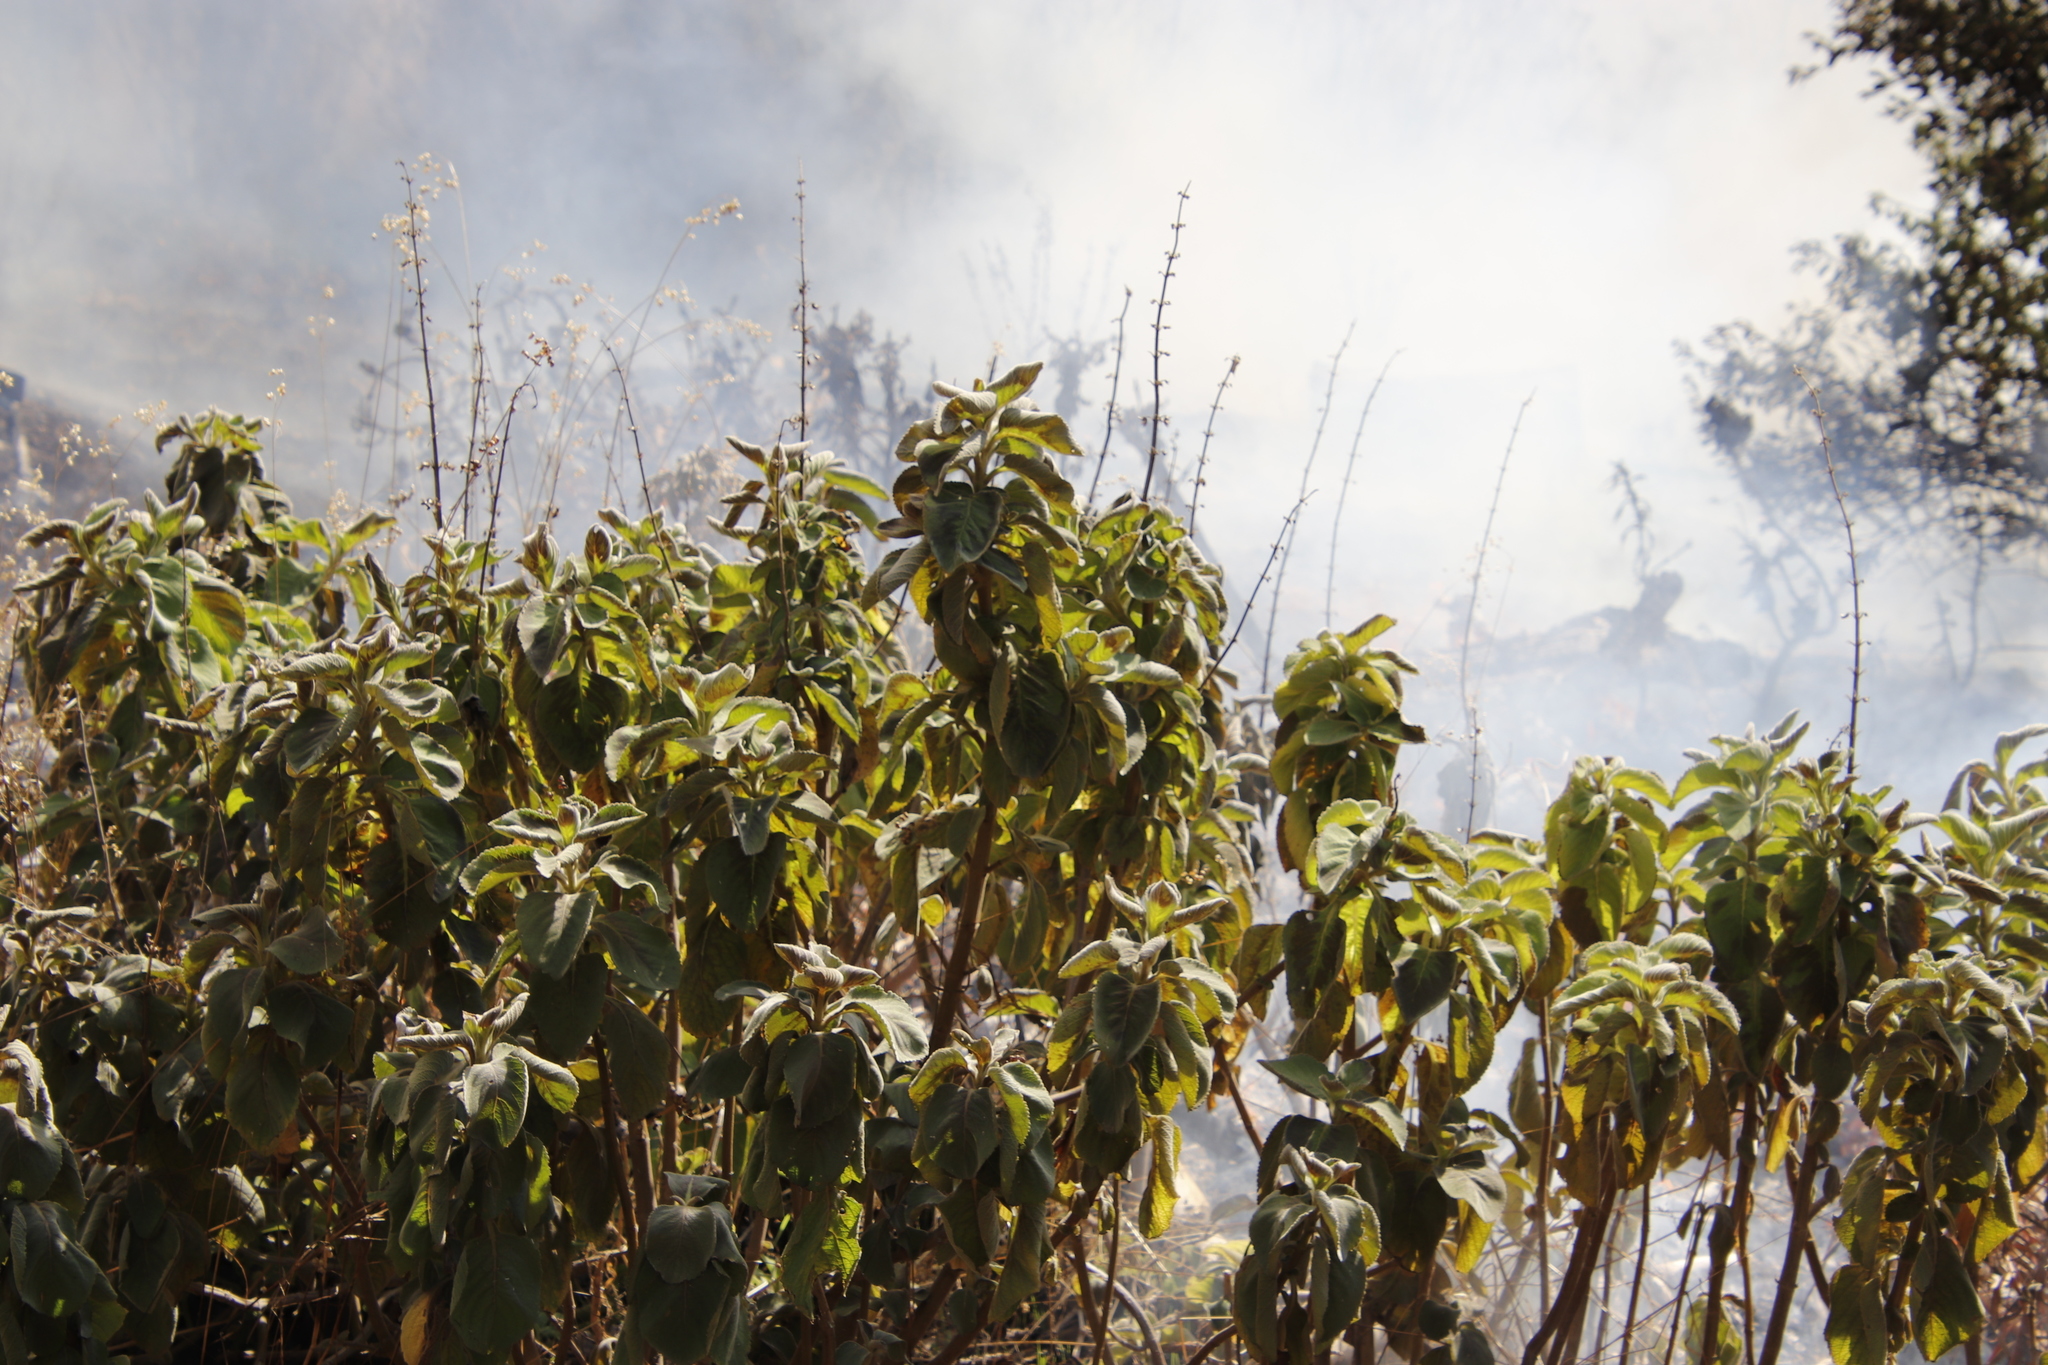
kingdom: Plantae
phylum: Tracheophyta
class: Magnoliopsida
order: Lamiales
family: Lamiaceae
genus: Coleus
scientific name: Coleus barbatus
